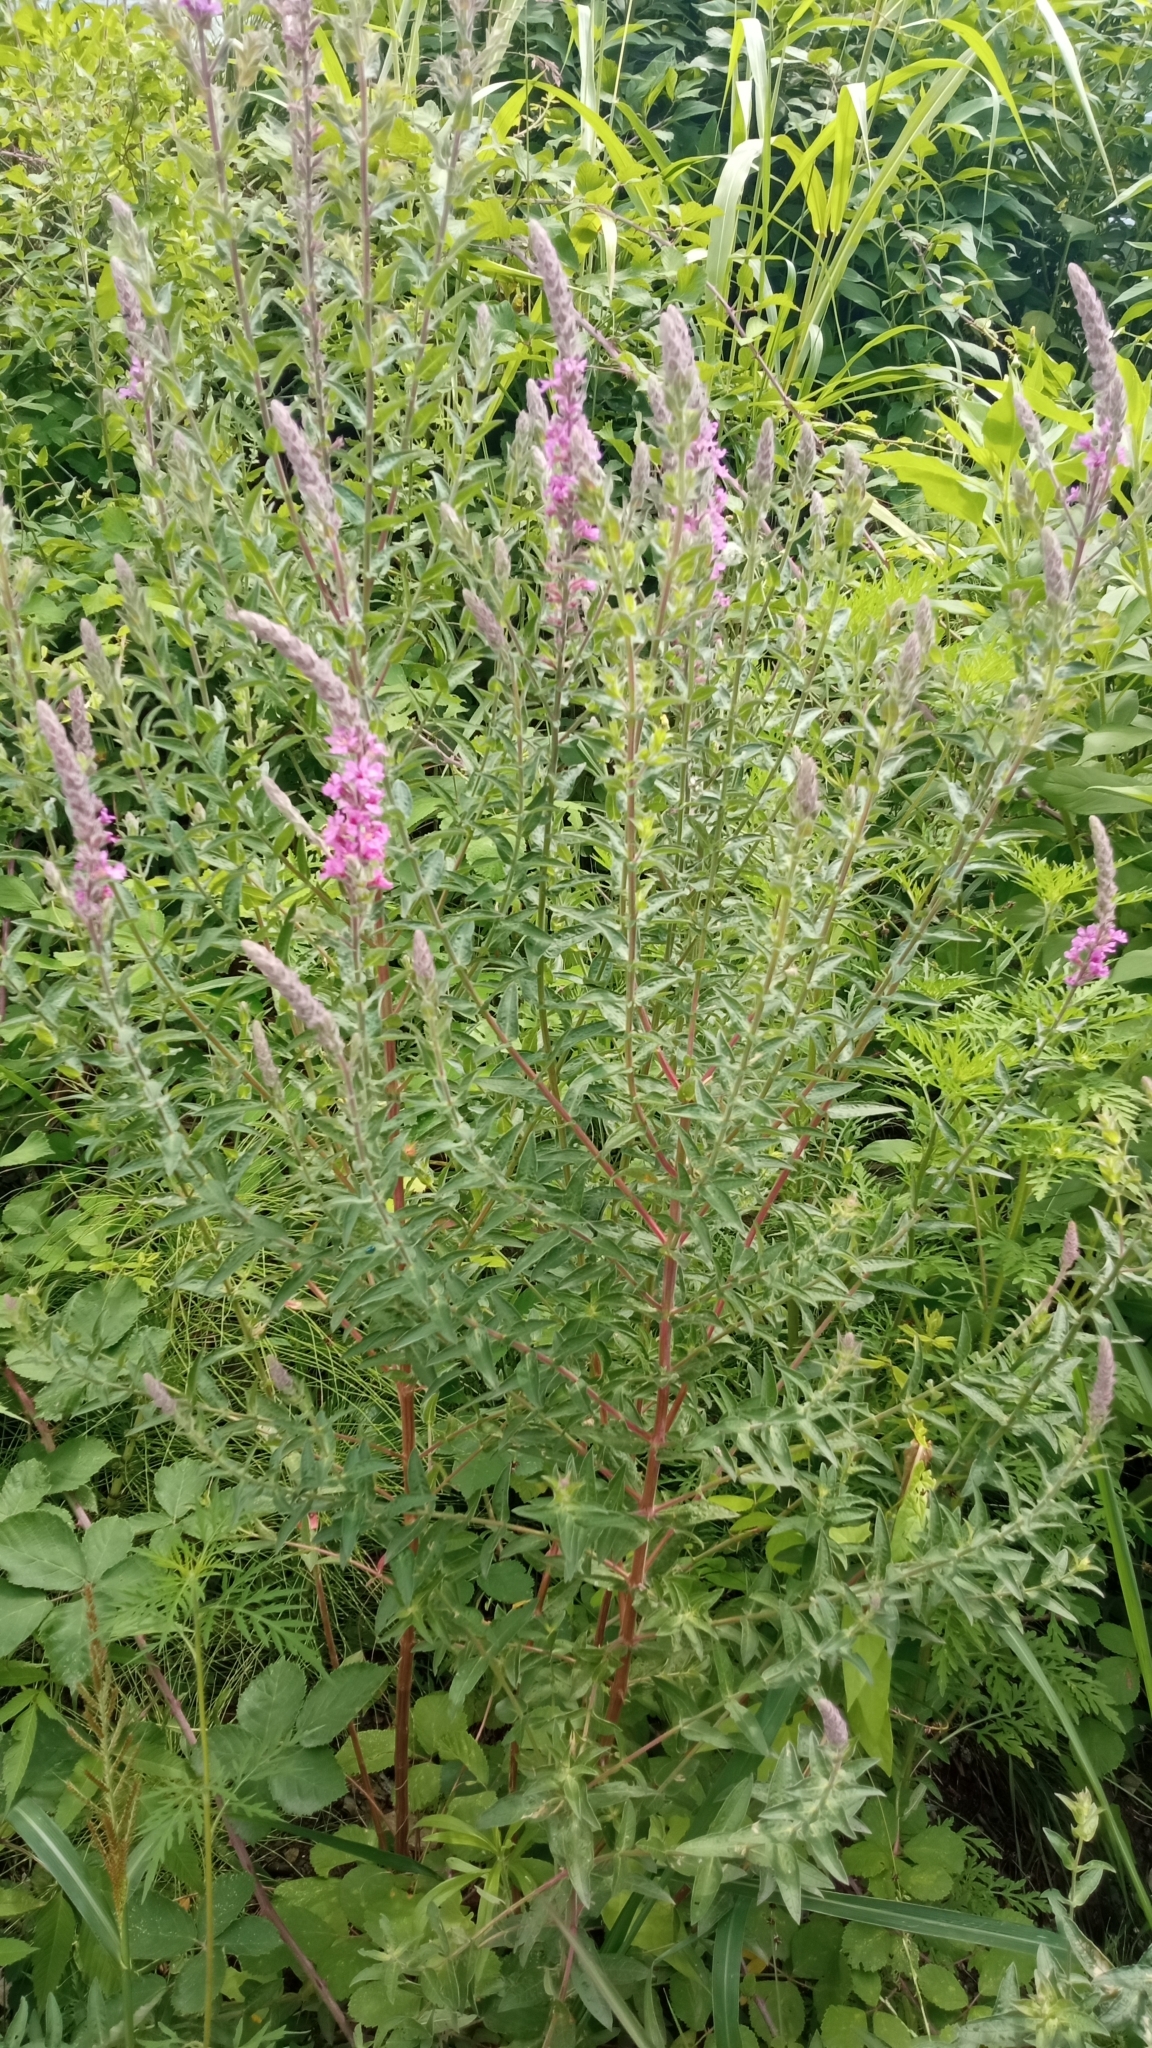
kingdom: Plantae
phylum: Tracheophyta
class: Magnoliopsida
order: Myrtales
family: Lythraceae
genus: Lythrum
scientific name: Lythrum salicaria
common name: Purple loosestrife
